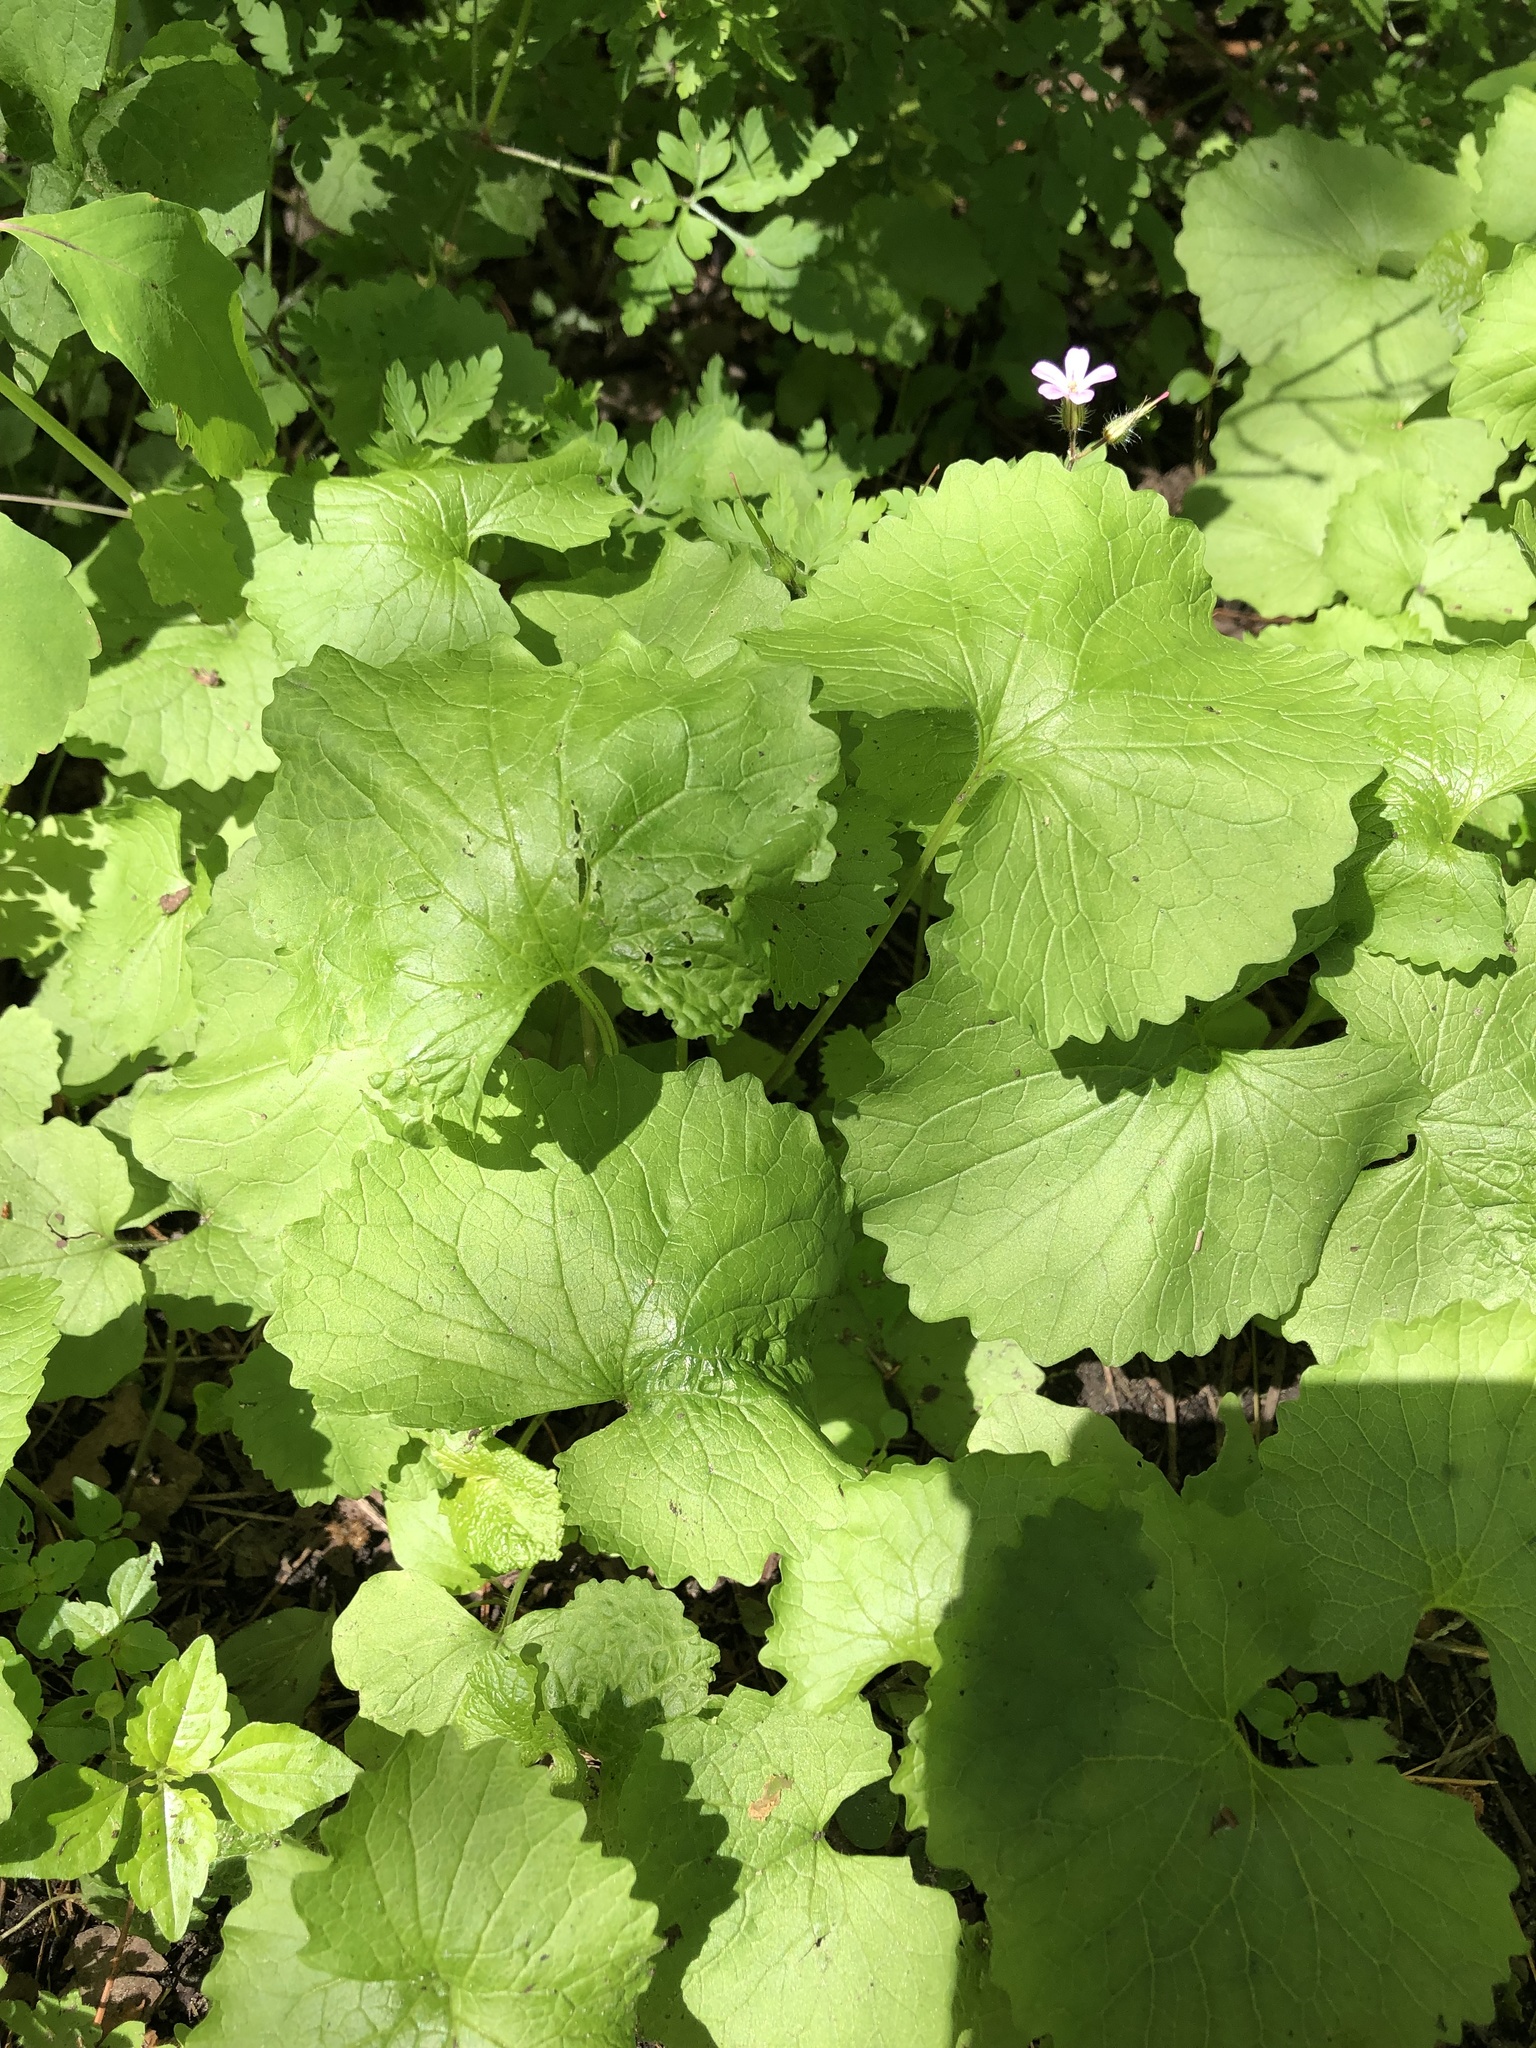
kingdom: Plantae
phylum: Tracheophyta
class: Magnoliopsida
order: Brassicales
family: Brassicaceae
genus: Alliaria
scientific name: Alliaria petiolata
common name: Garlic mustard
